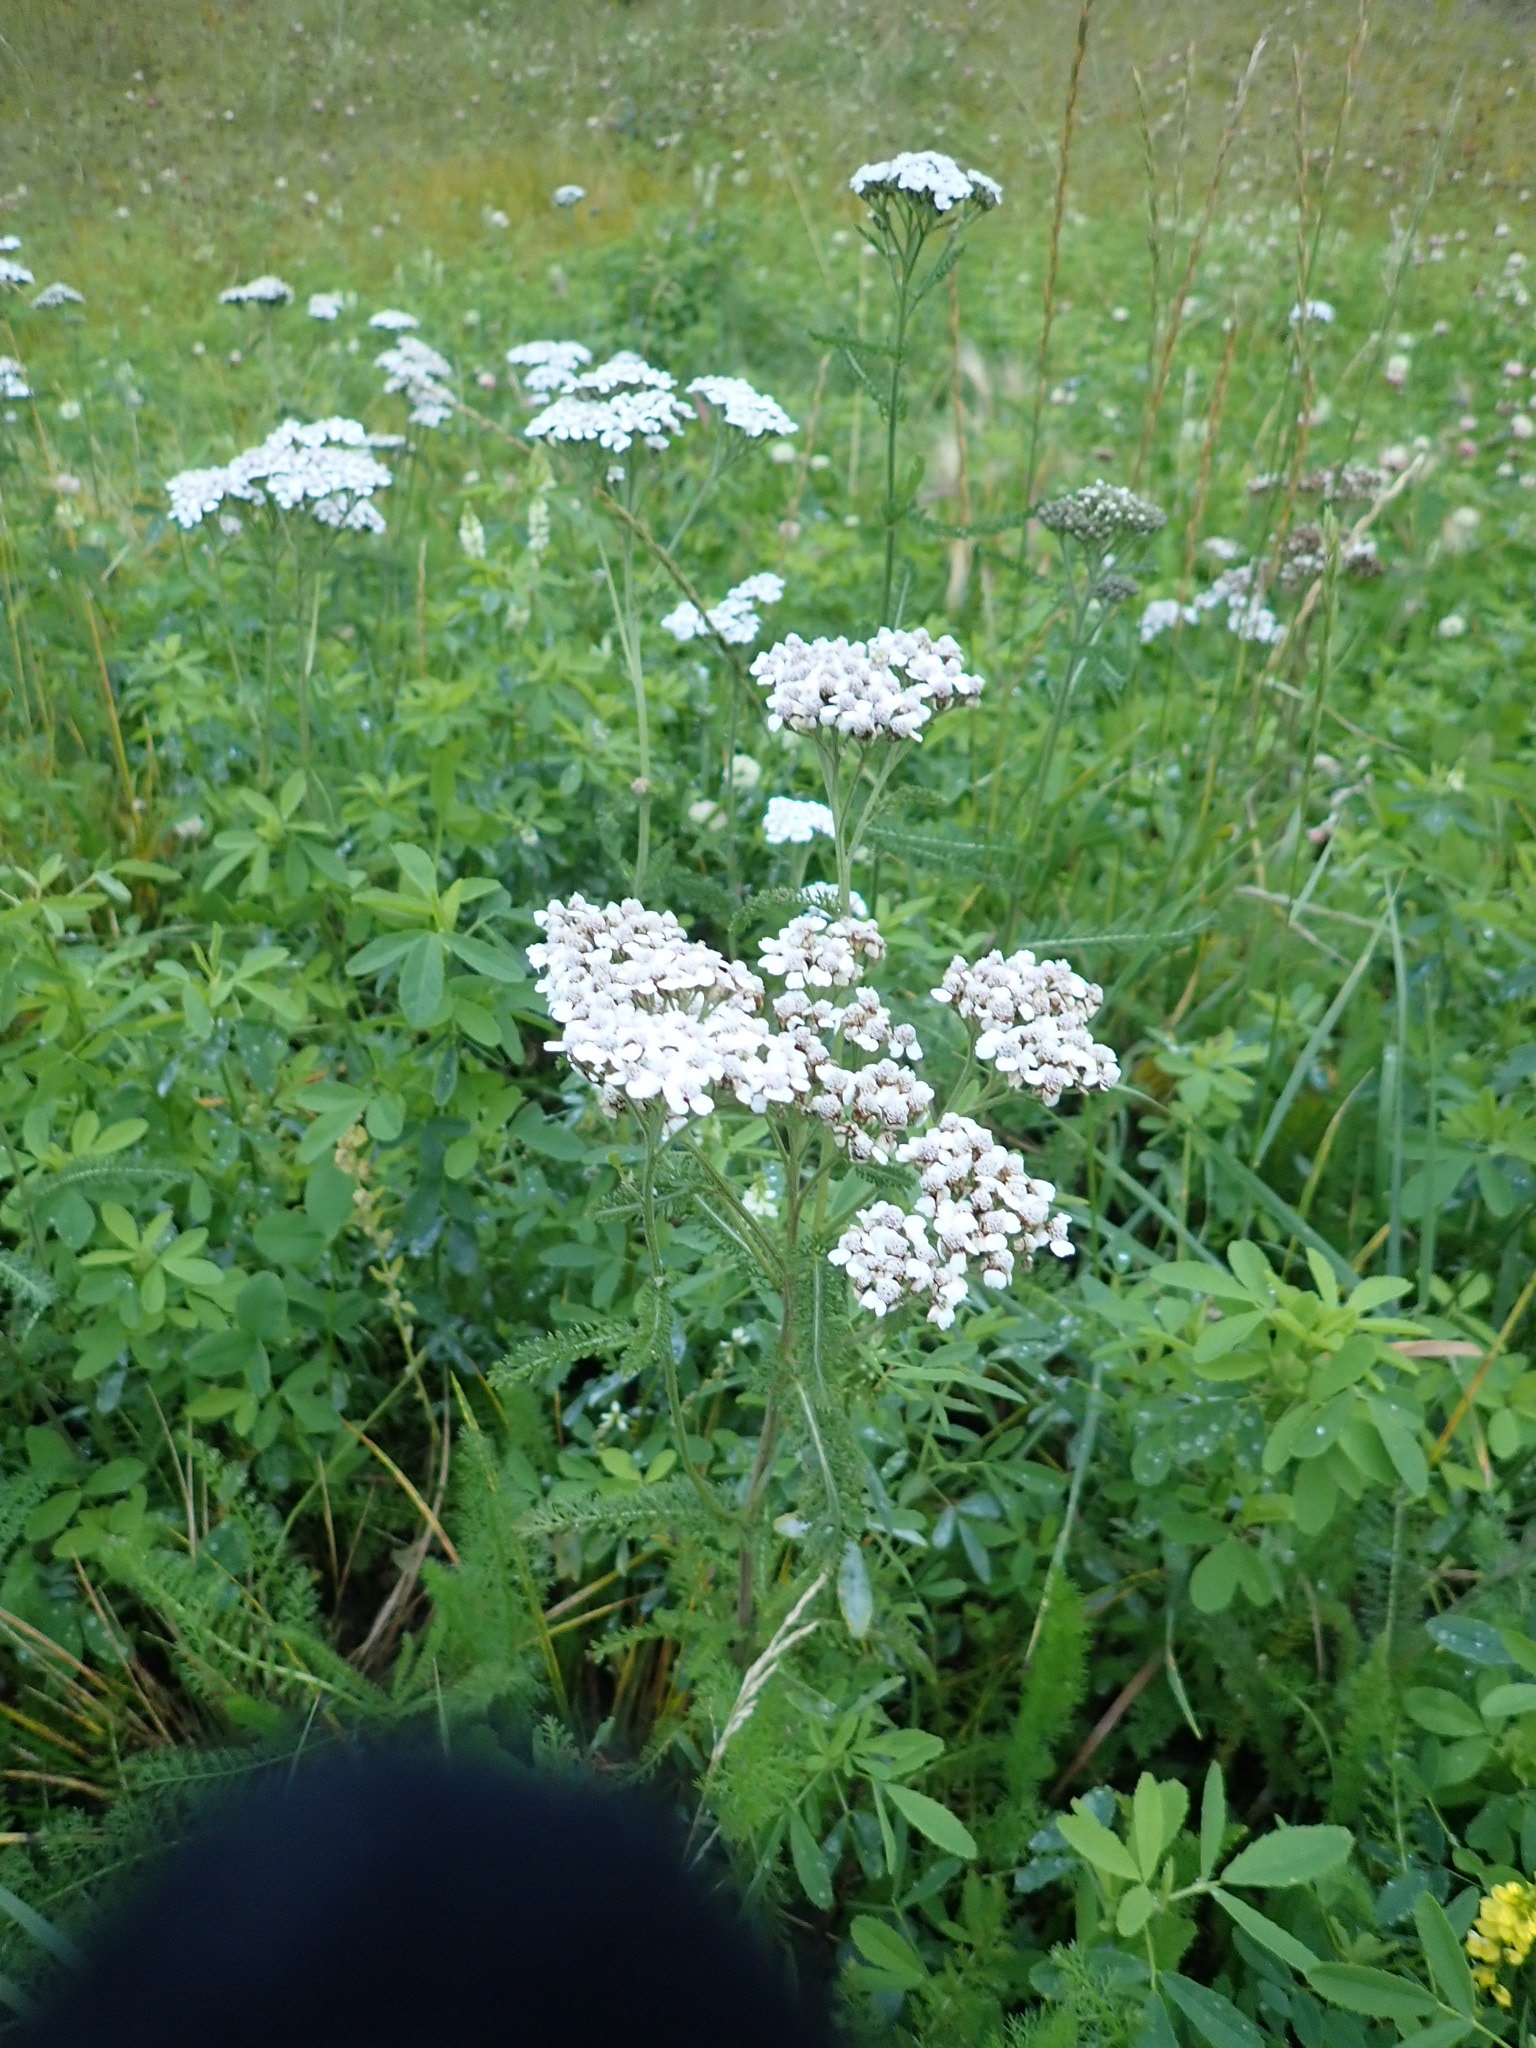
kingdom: Plantae
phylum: Tracheophyta
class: Magnoliopsida
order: Asterales
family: Asteraceae
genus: Achillea
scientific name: Achillea millefolium
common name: Yarrow
